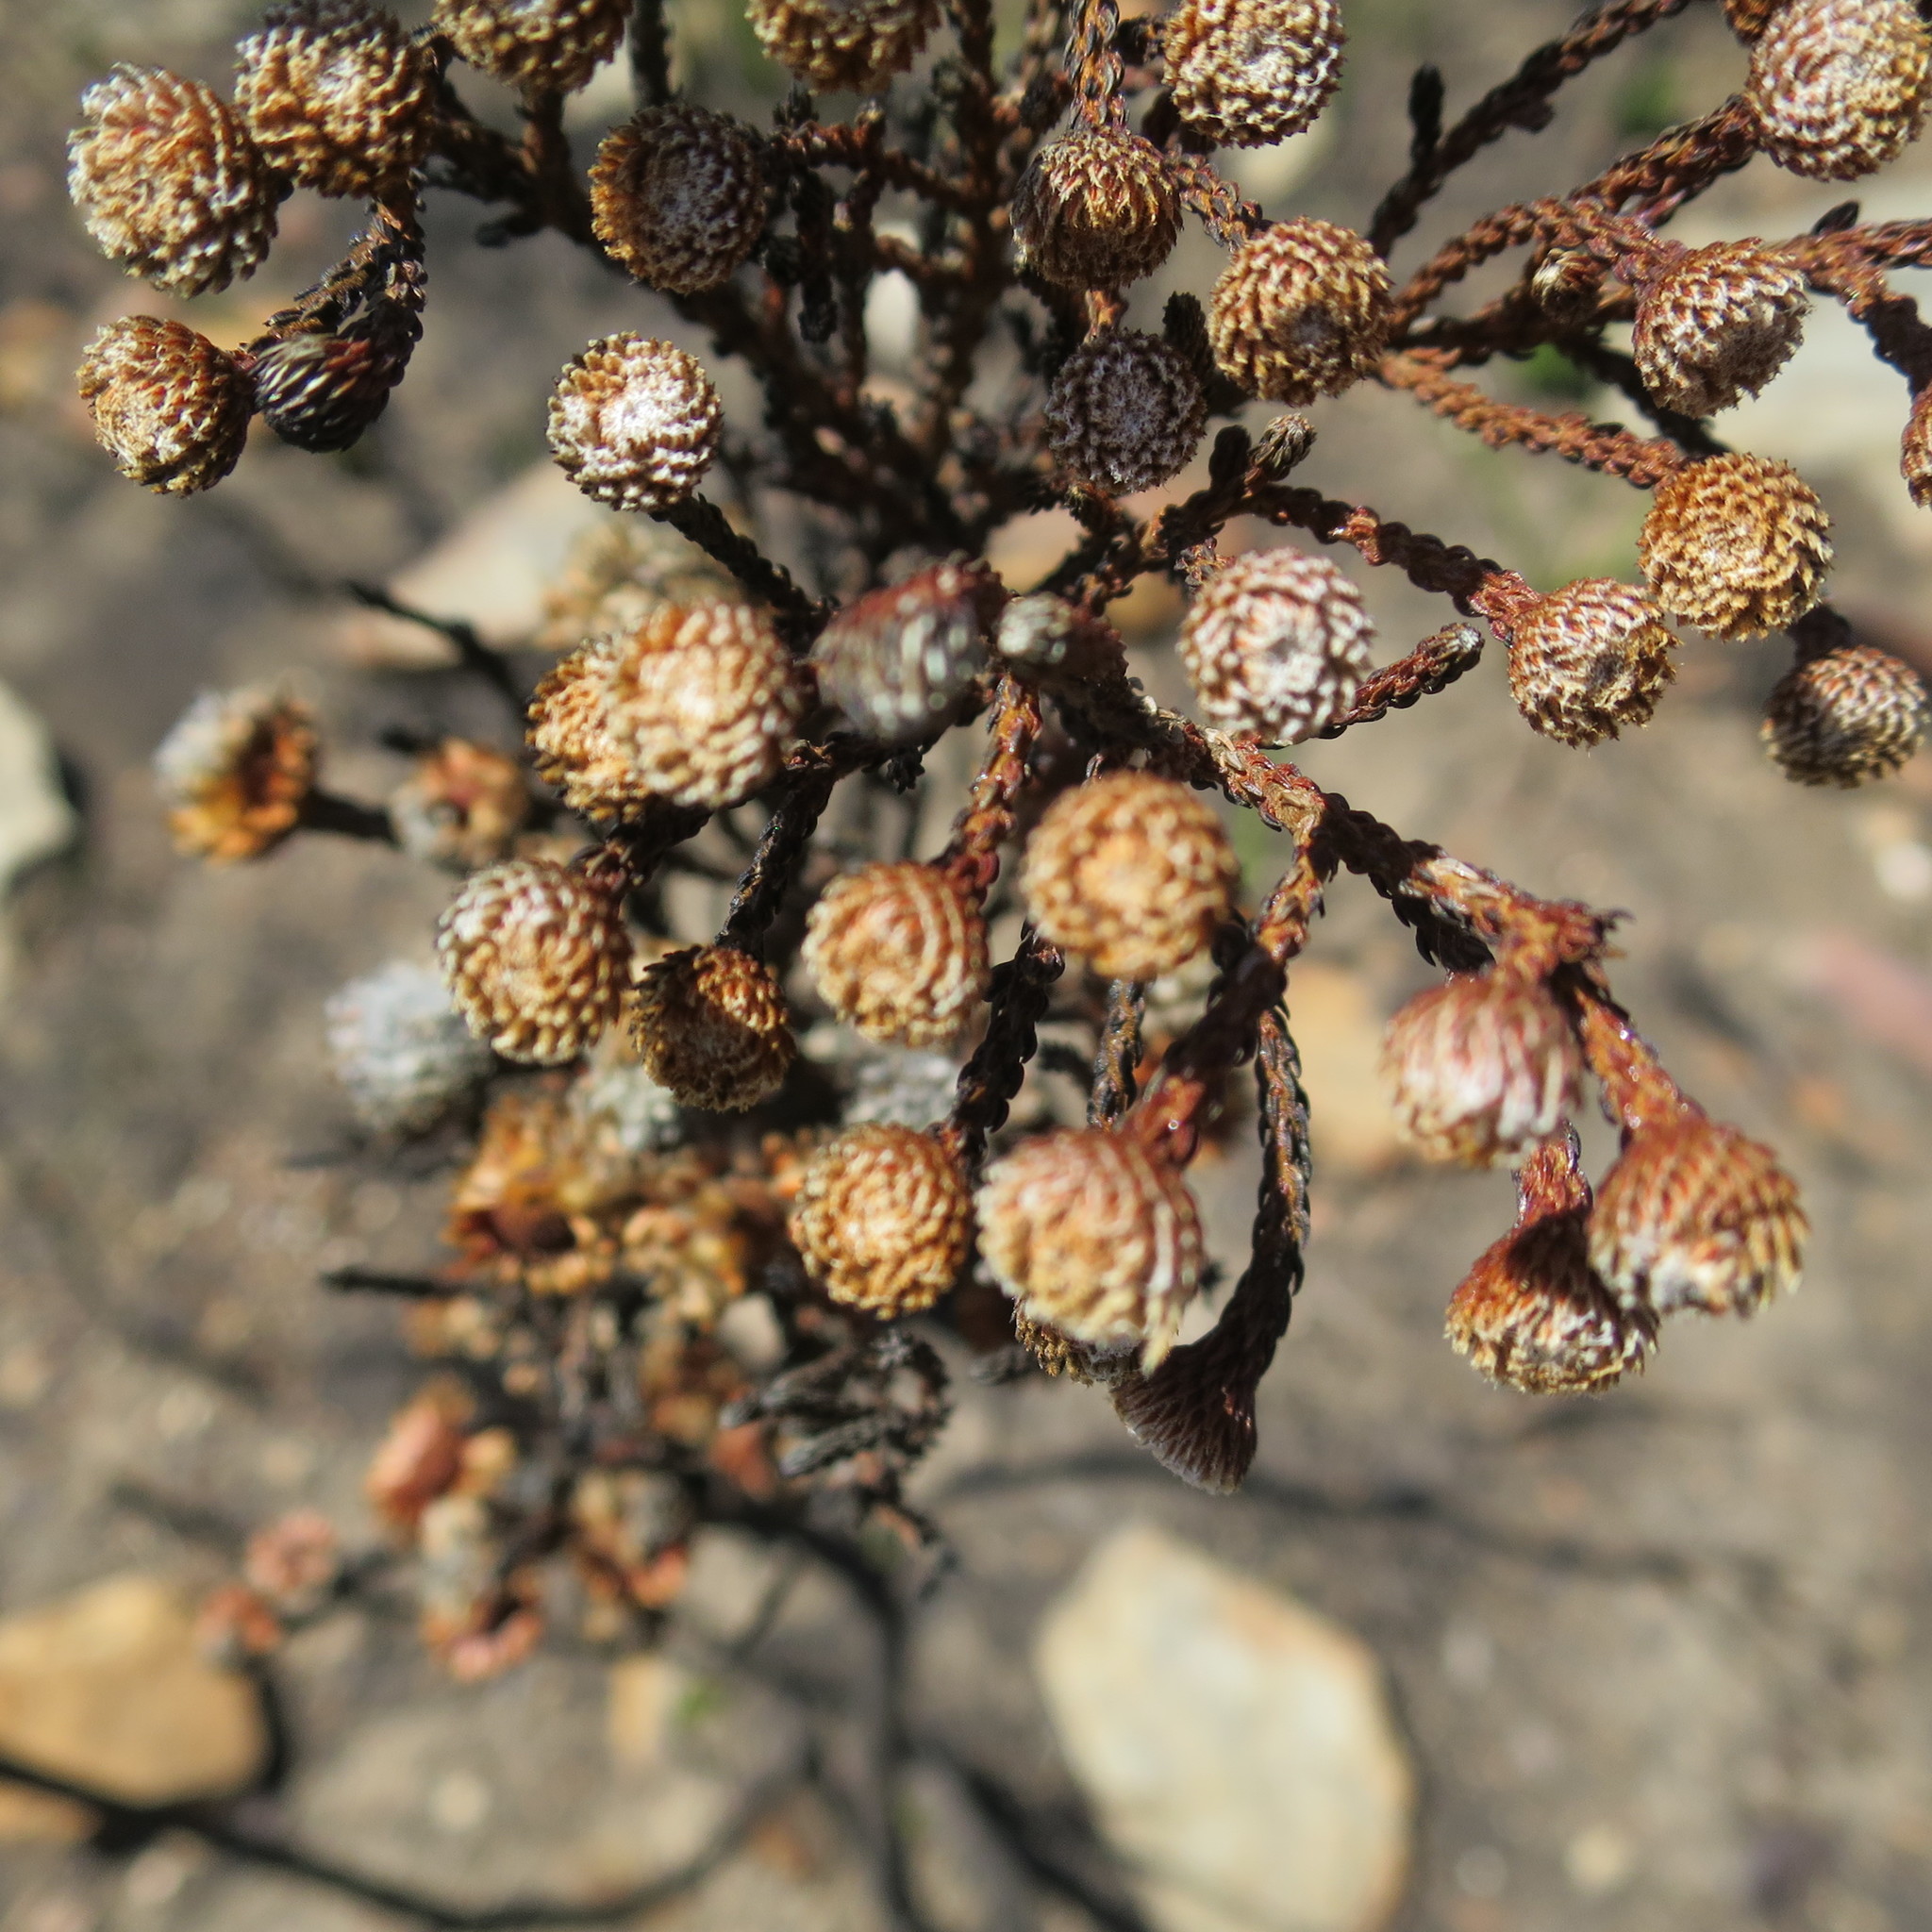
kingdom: Plantae
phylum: Tracheophyta
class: Magnoliopsida
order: Bruniales
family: Bruniaceae
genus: Brunia
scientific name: Brunia noduliflora
